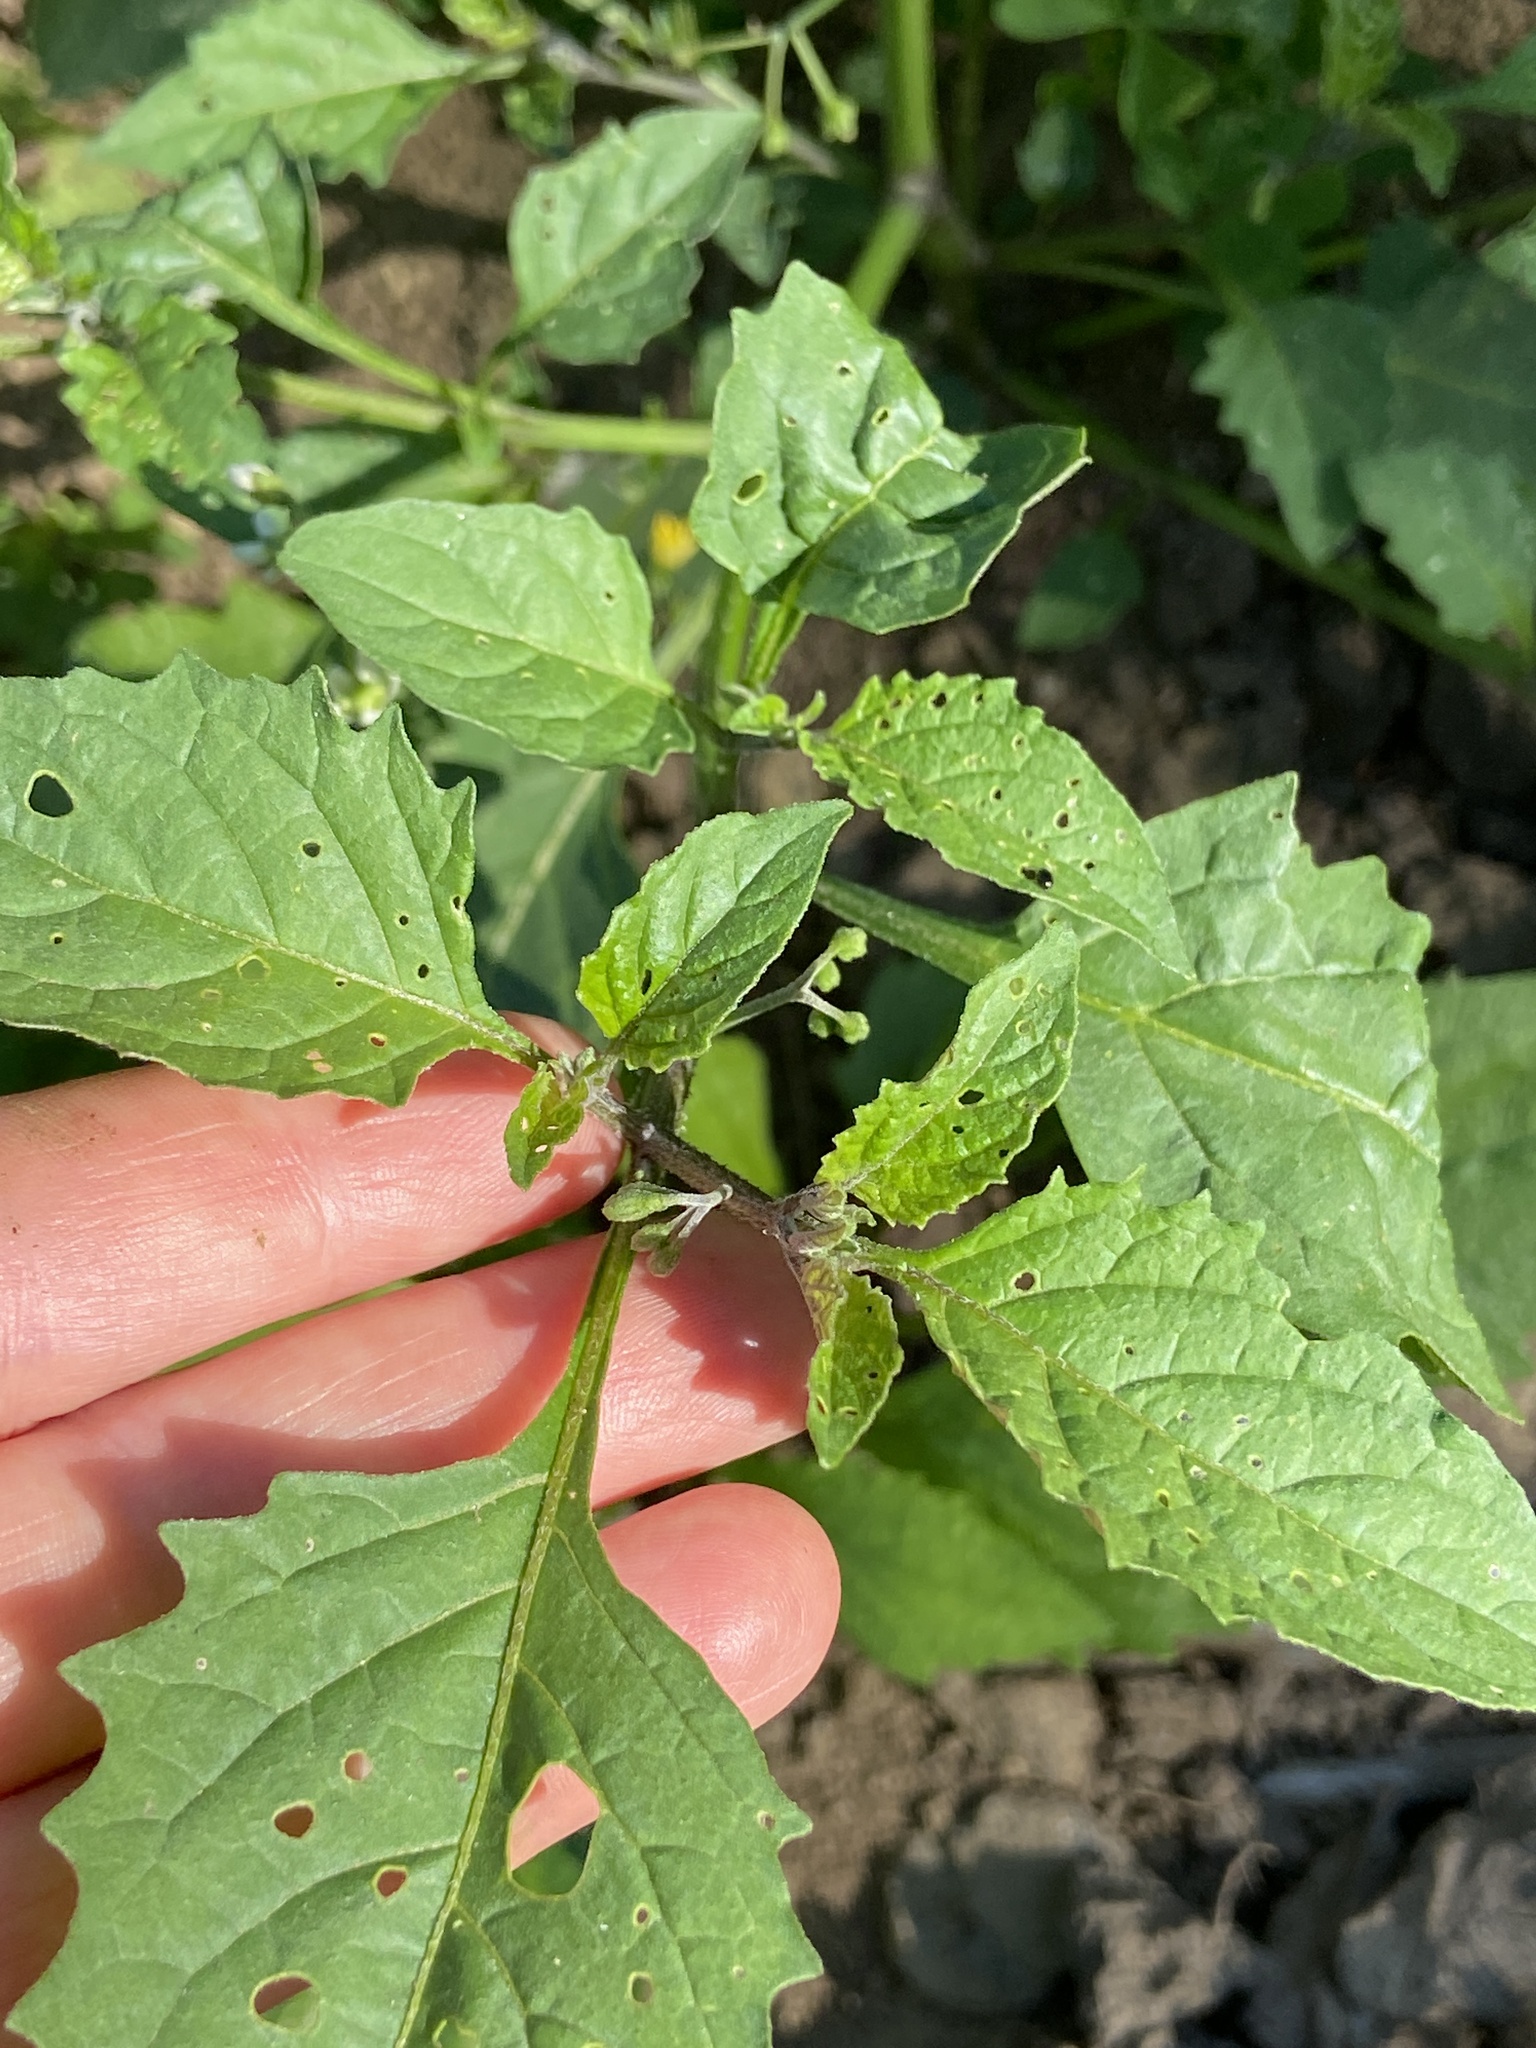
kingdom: Plantae
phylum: Tracheophyta
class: Magnoliopsida
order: Solanales
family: Solanaceae
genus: Solanum
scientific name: Solanum emulans
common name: Eastern black nightshade
